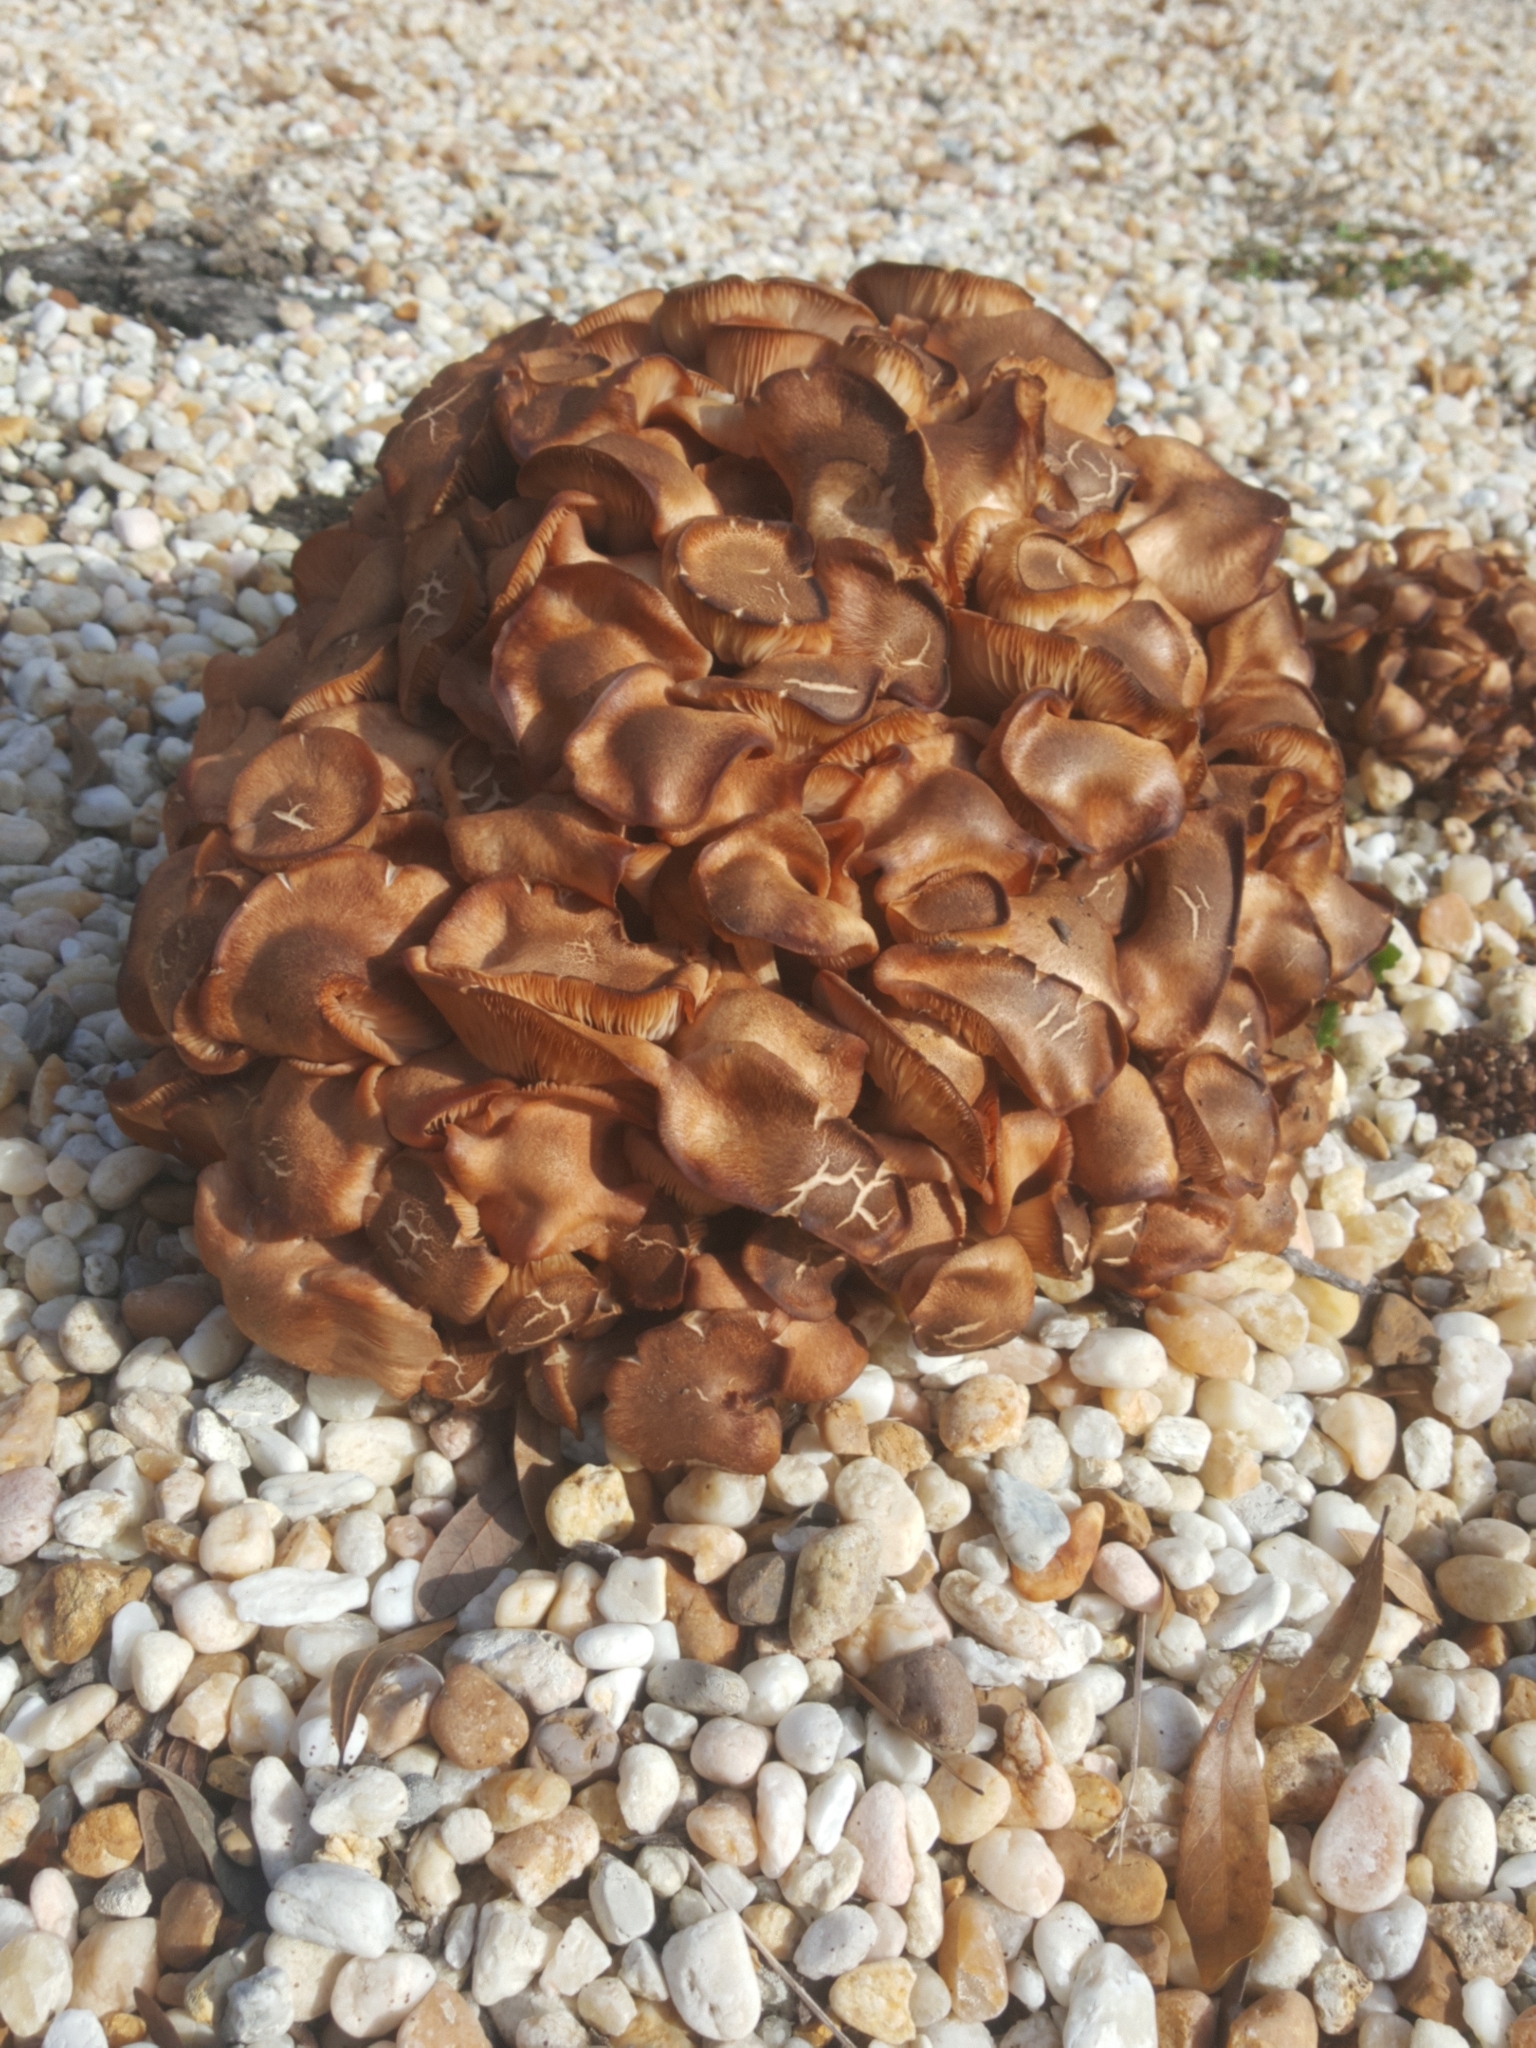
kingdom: Fungi
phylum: Basidiomycota
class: Agaricomycetes
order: Agaricales
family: Physalacriaceae
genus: Desarmillaria
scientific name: Desarmillaria caespitosa
